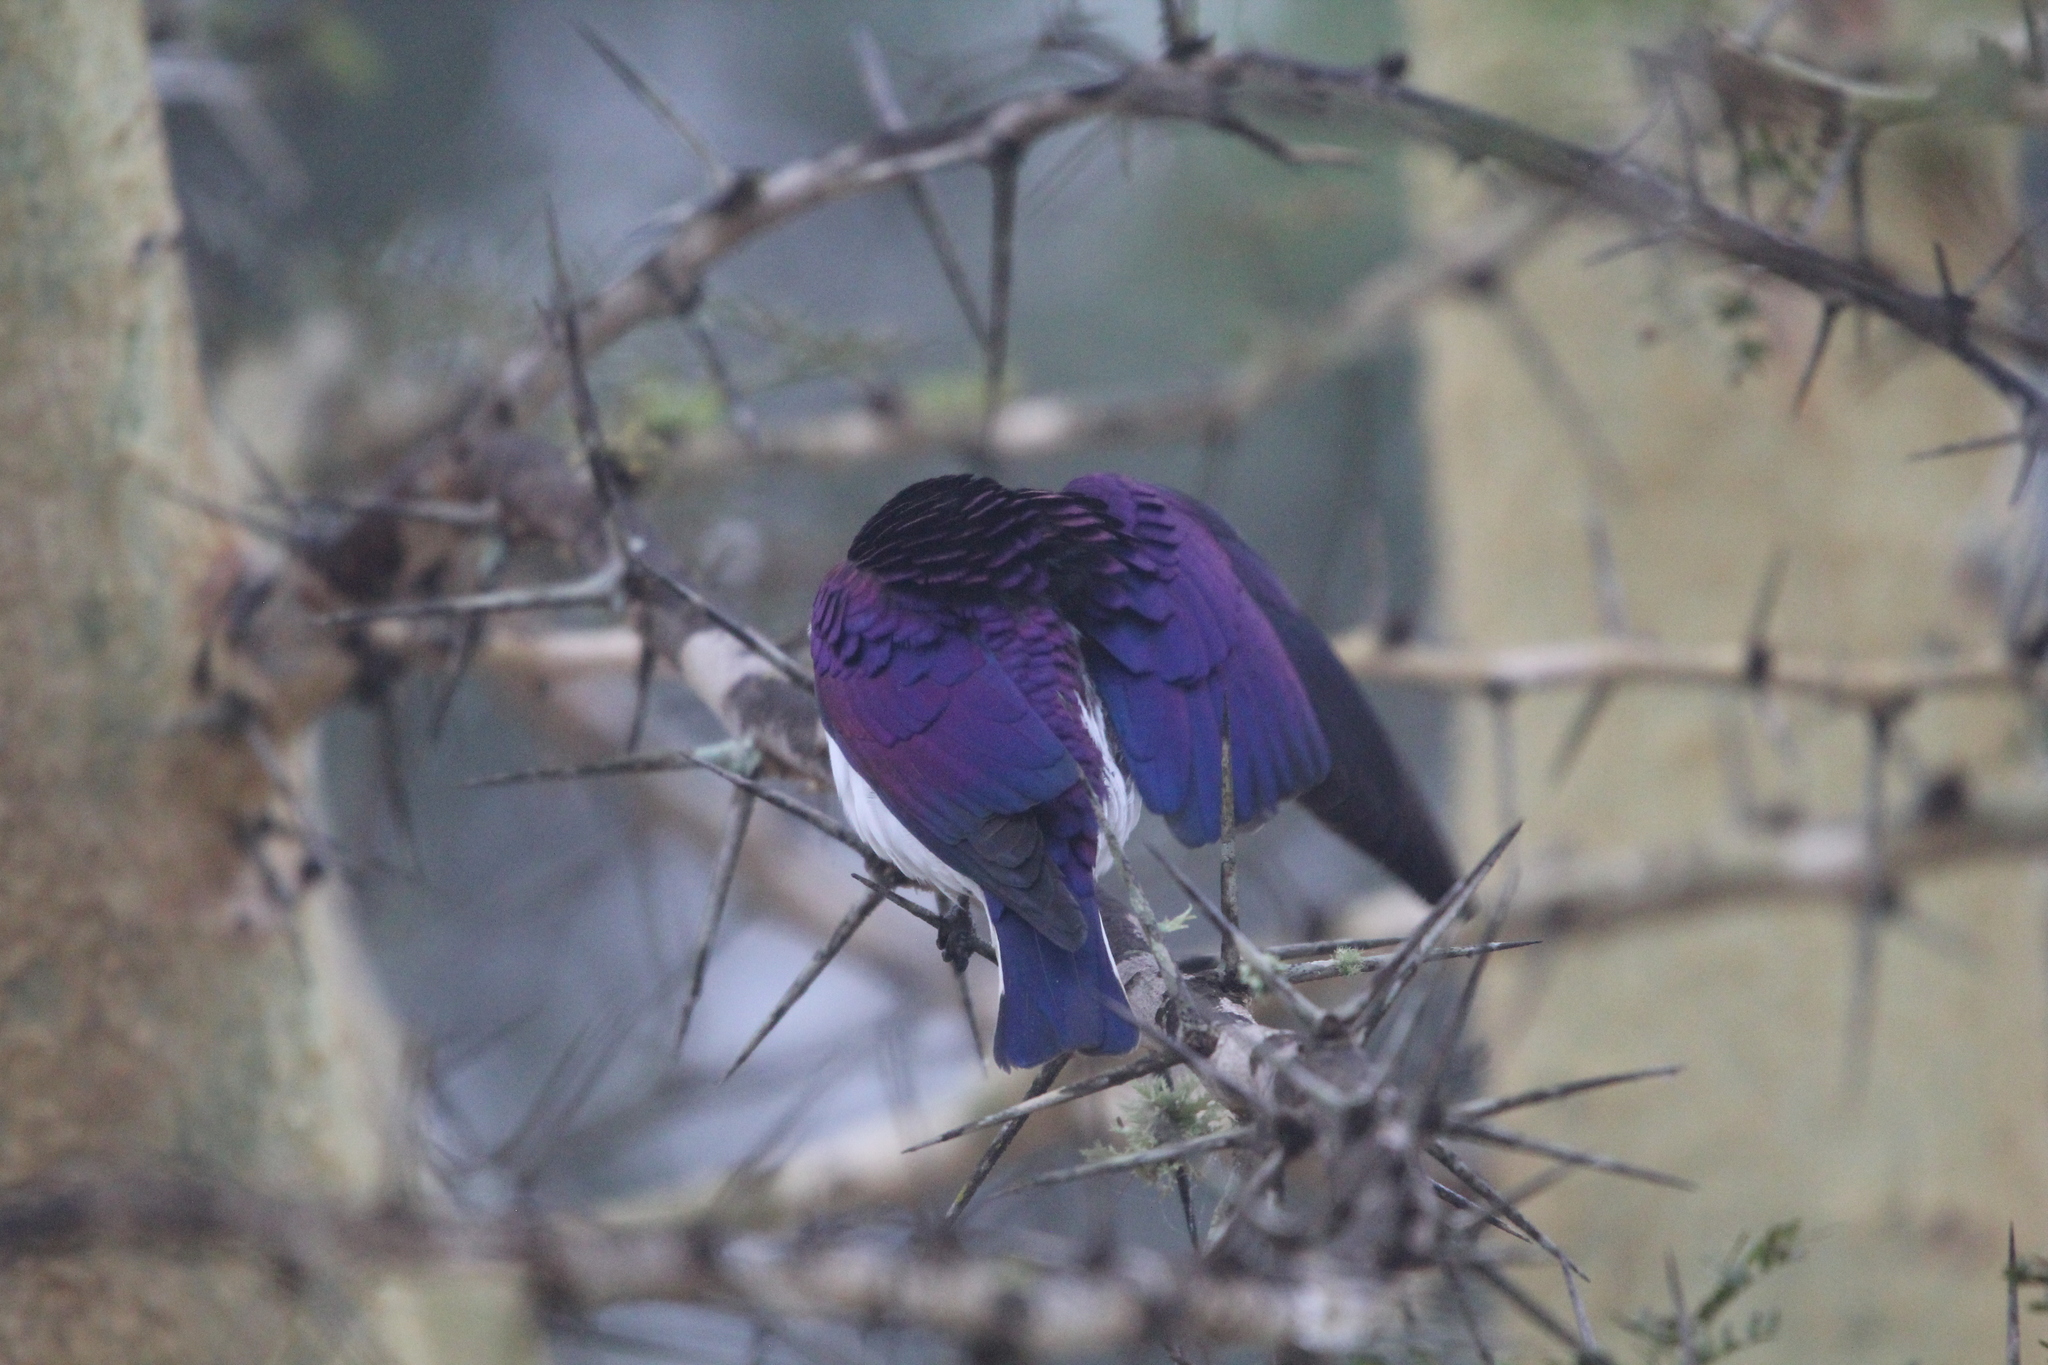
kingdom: Animalia
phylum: Chordata
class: Aves
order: Passeriformes
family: Sturnidae
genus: Cinnyricinclus
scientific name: Cinnyricinclus leucogaster
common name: Violet-backed starling
